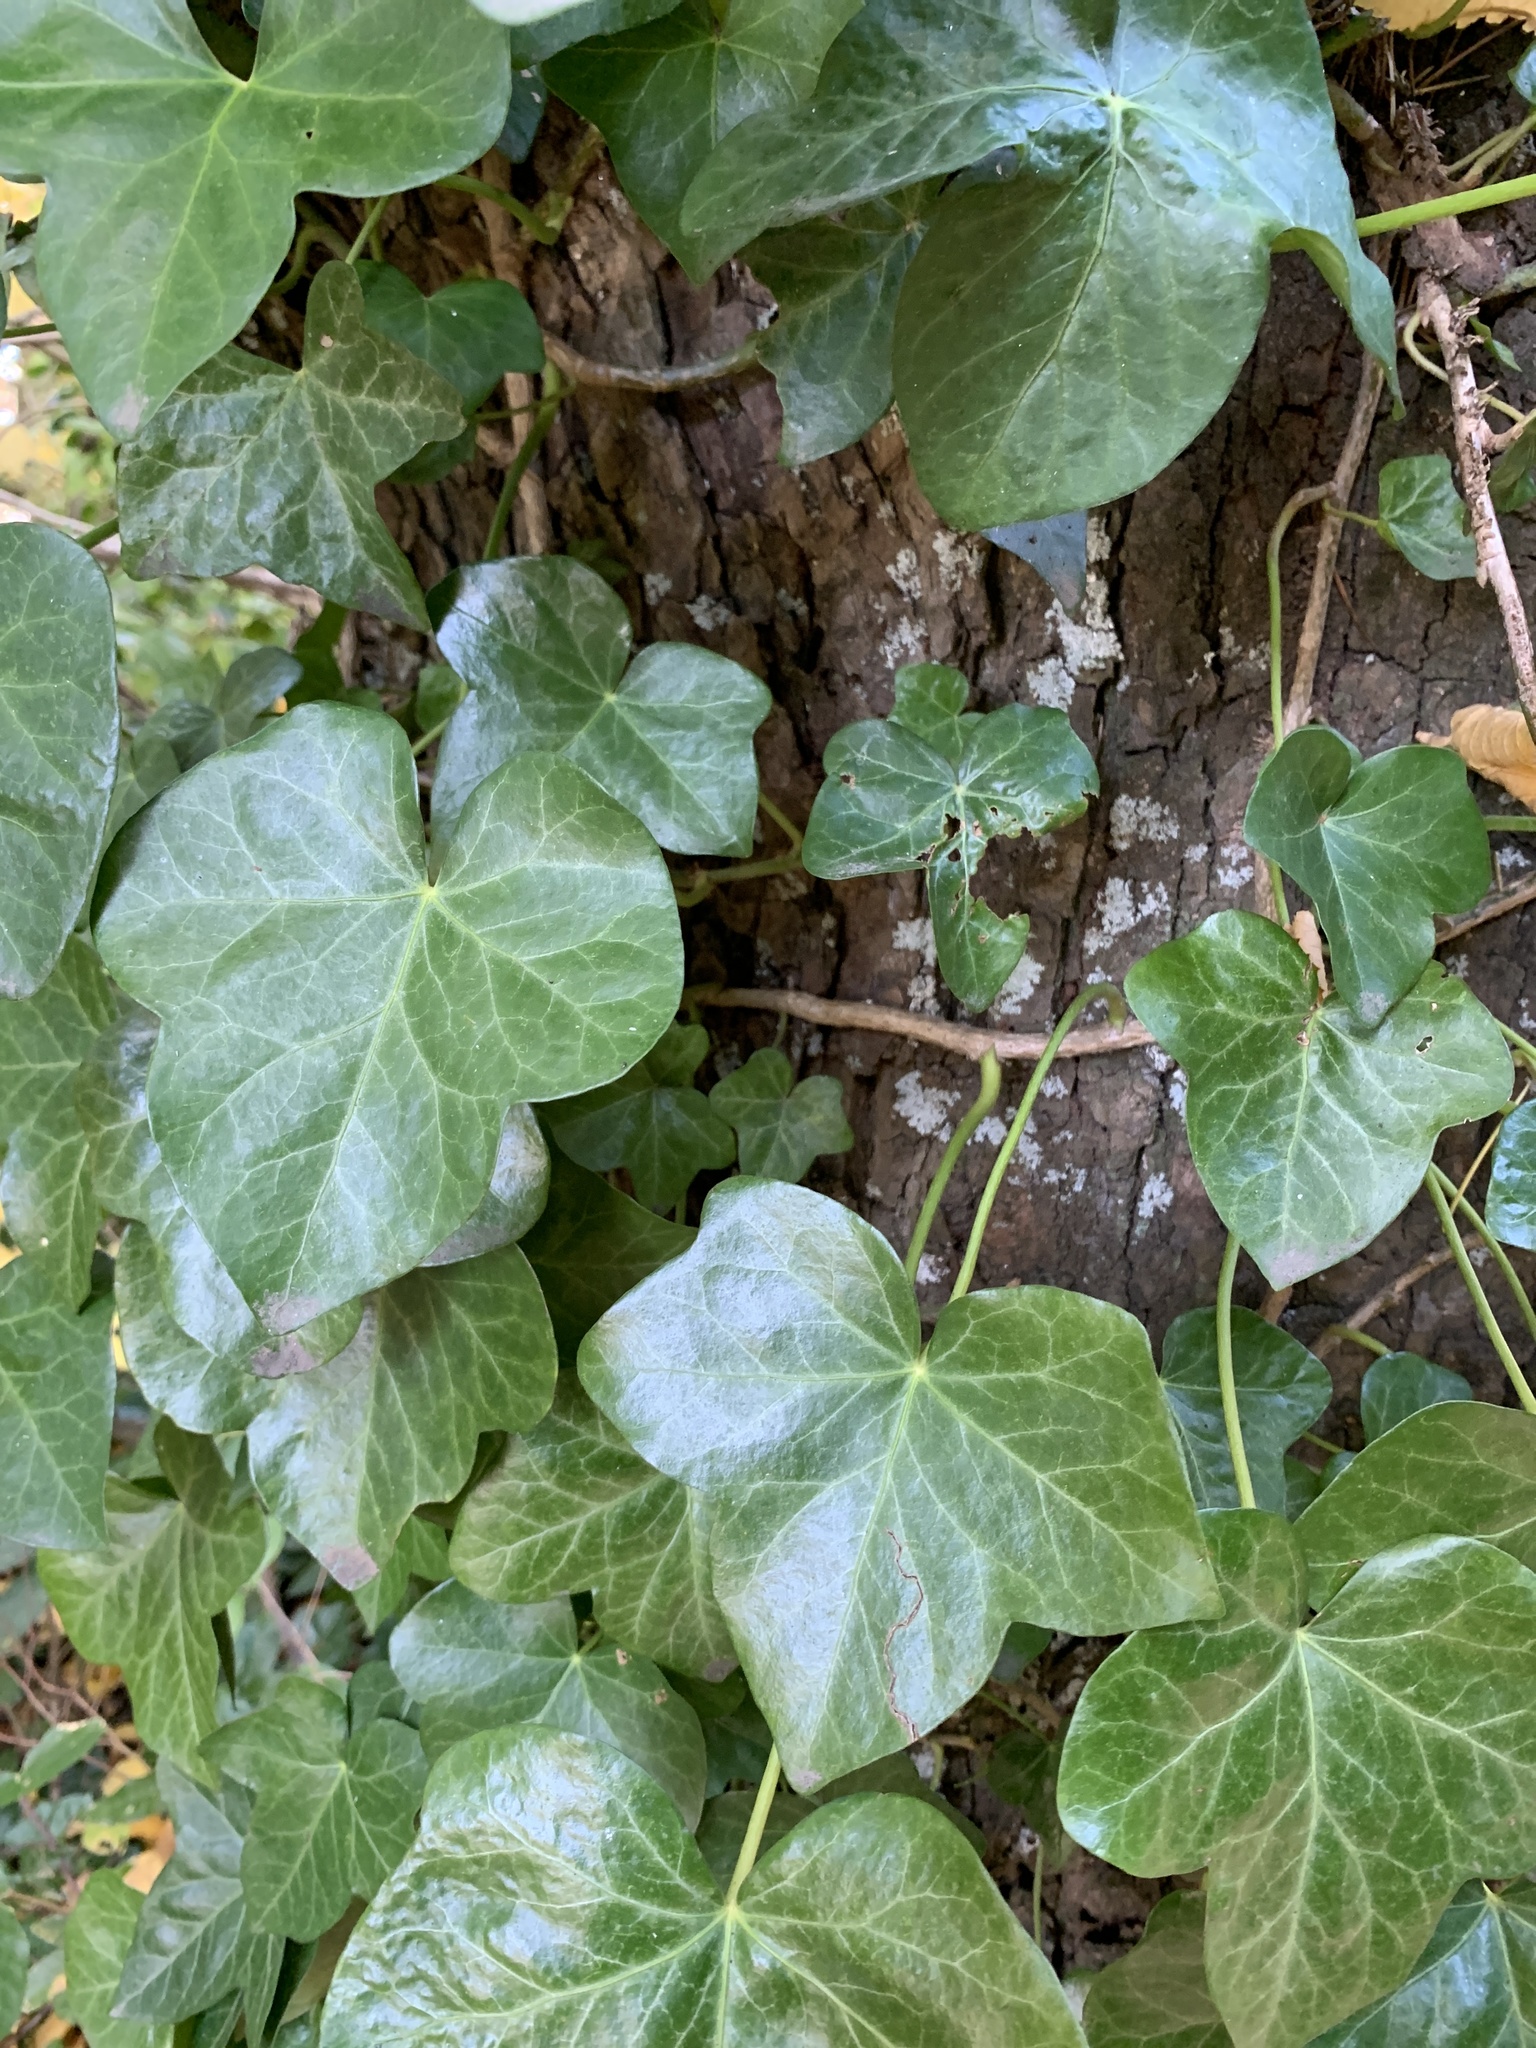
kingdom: Plantae
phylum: Tracheophyta
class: Magnoliopsida
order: Apiales
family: Araliaceae
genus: Hedera
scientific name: Hedera helix
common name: Ivy
